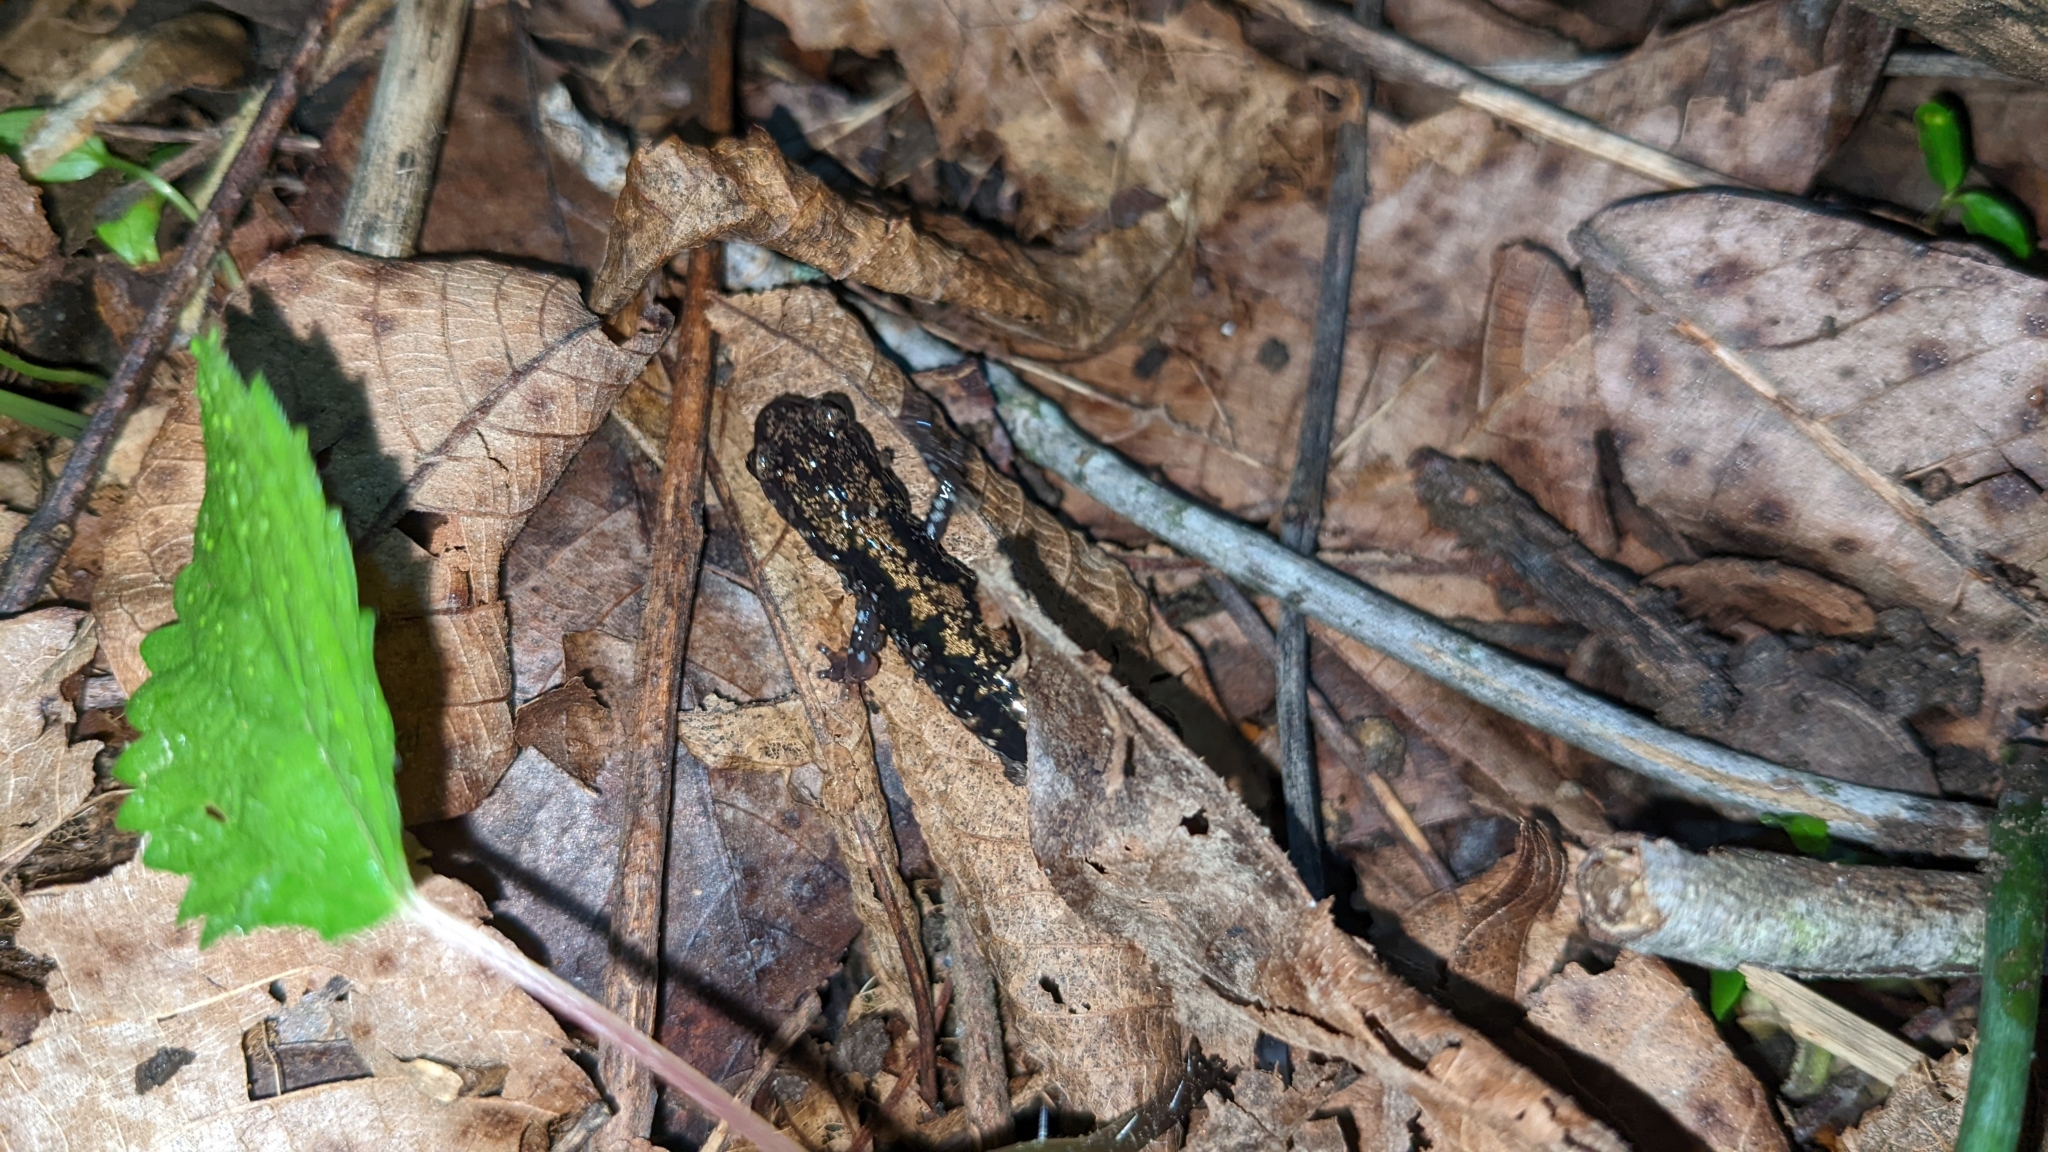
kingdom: Animalia
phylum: Chordata
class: Amphibia
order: Caudata
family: Plethodontidae
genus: Plethodon
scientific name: Plethodon ouachitae
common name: Rich mountain salamander
